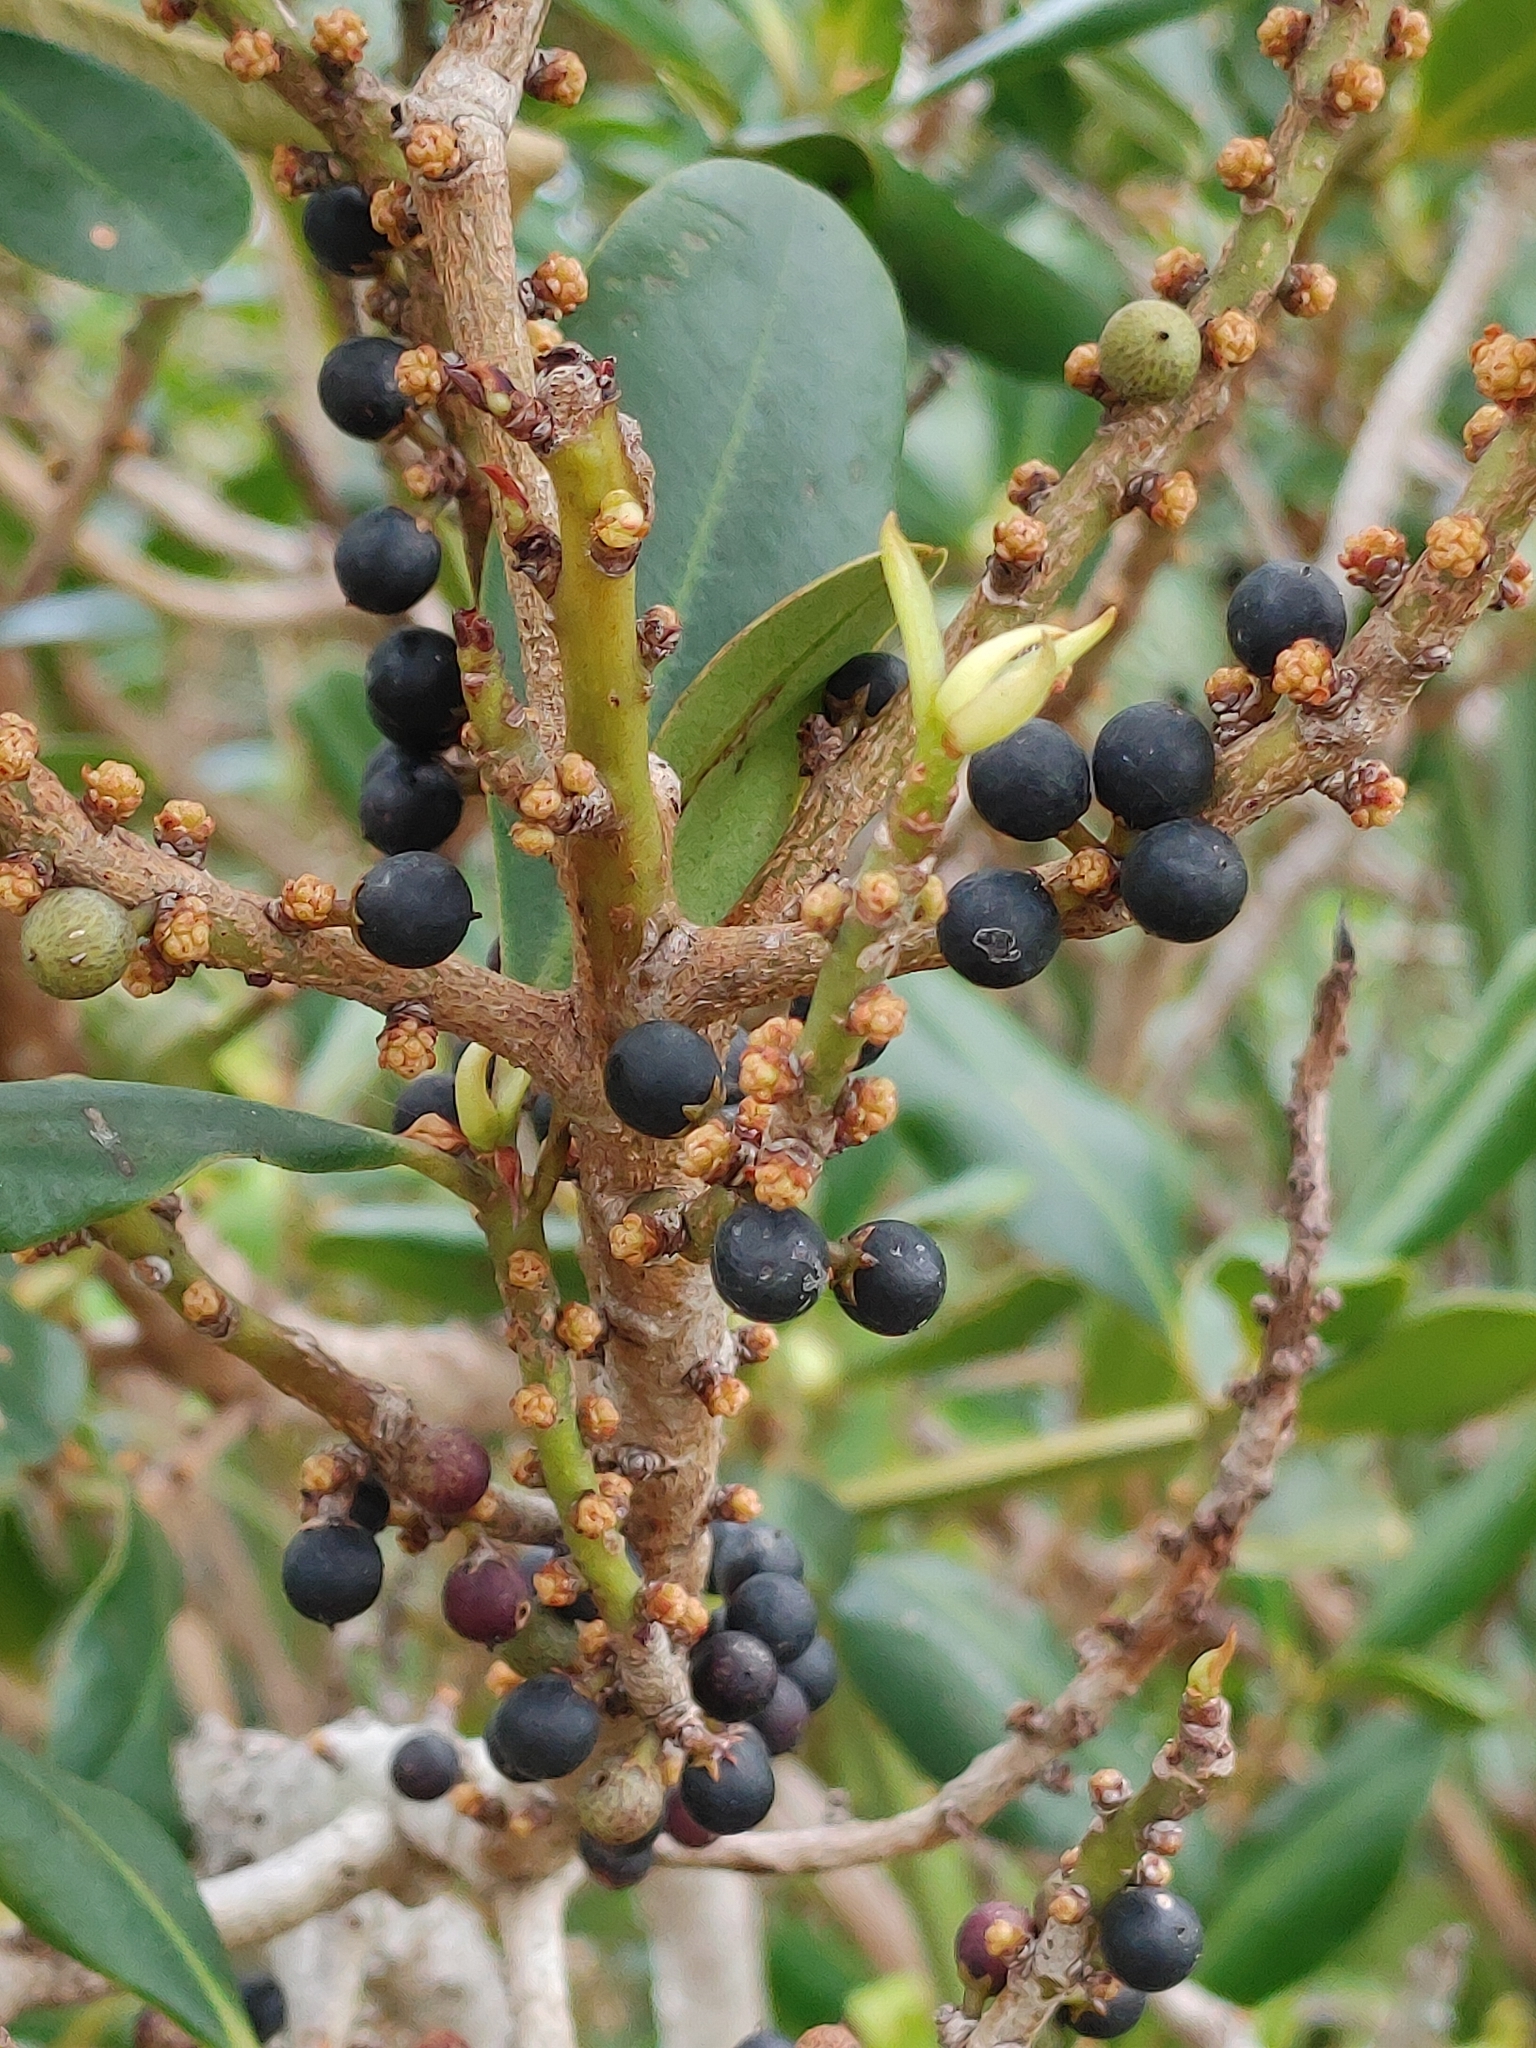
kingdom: Plantae
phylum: Tracheophyta
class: Magnoliopsida
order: Ericales
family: Primulaceae
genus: Myrsine
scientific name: Myrsine floridana
